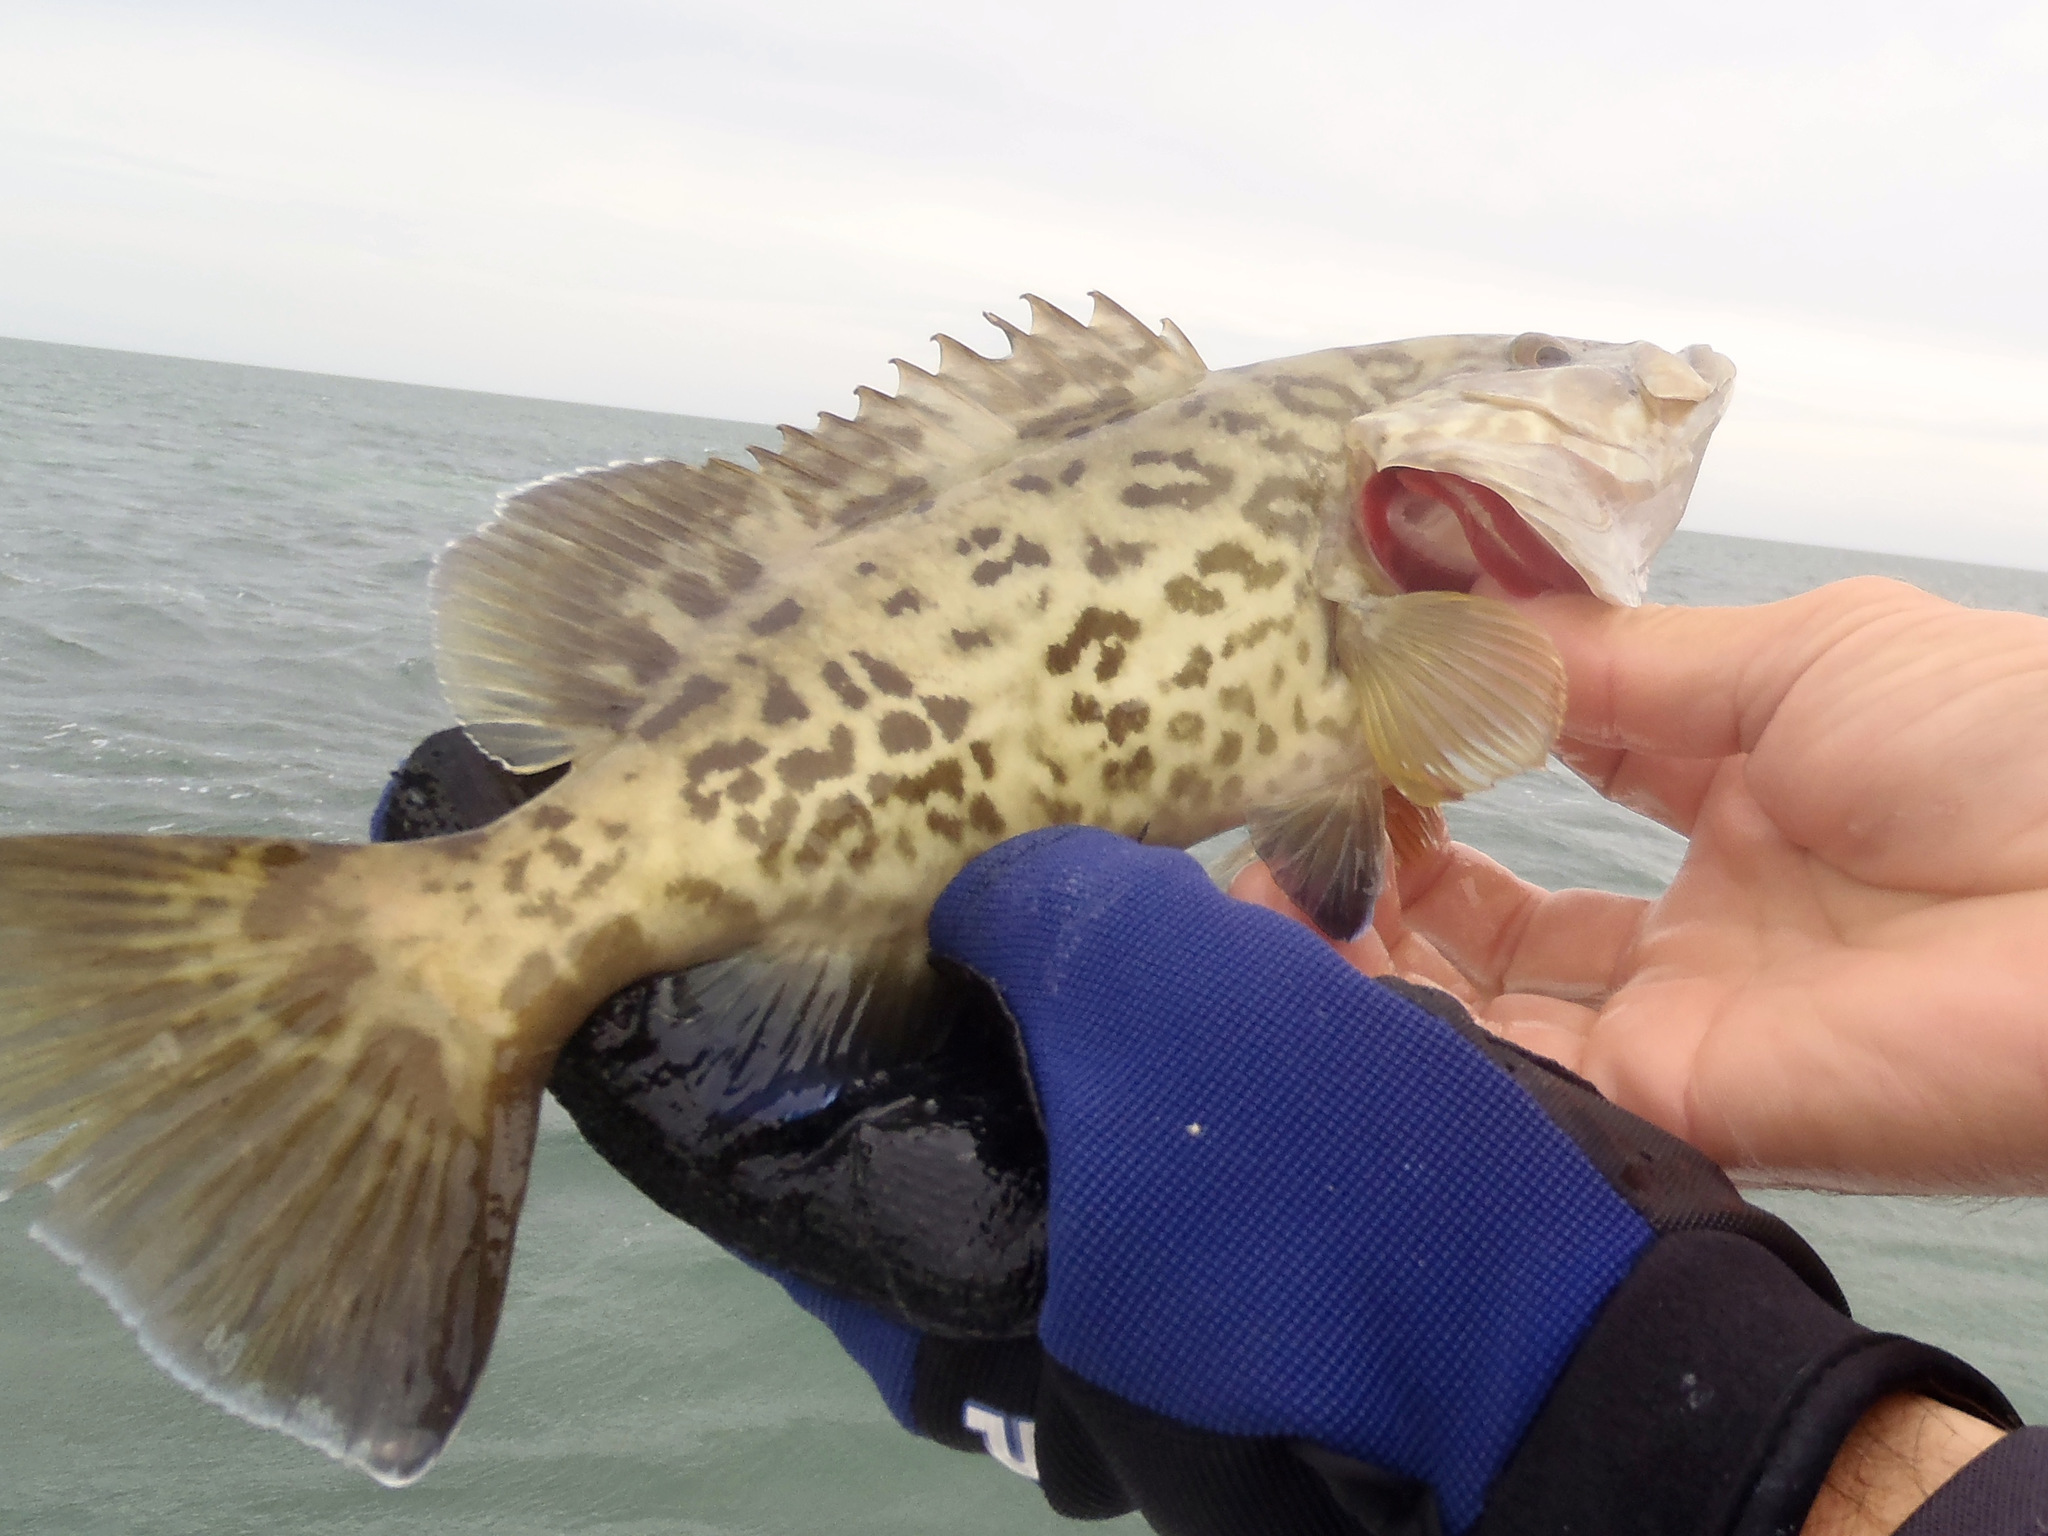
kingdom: Animalia
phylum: Chordata
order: Perciformes
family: Serranidae
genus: Mycteroperca
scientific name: Mycteroperca microlepis
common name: Gag
